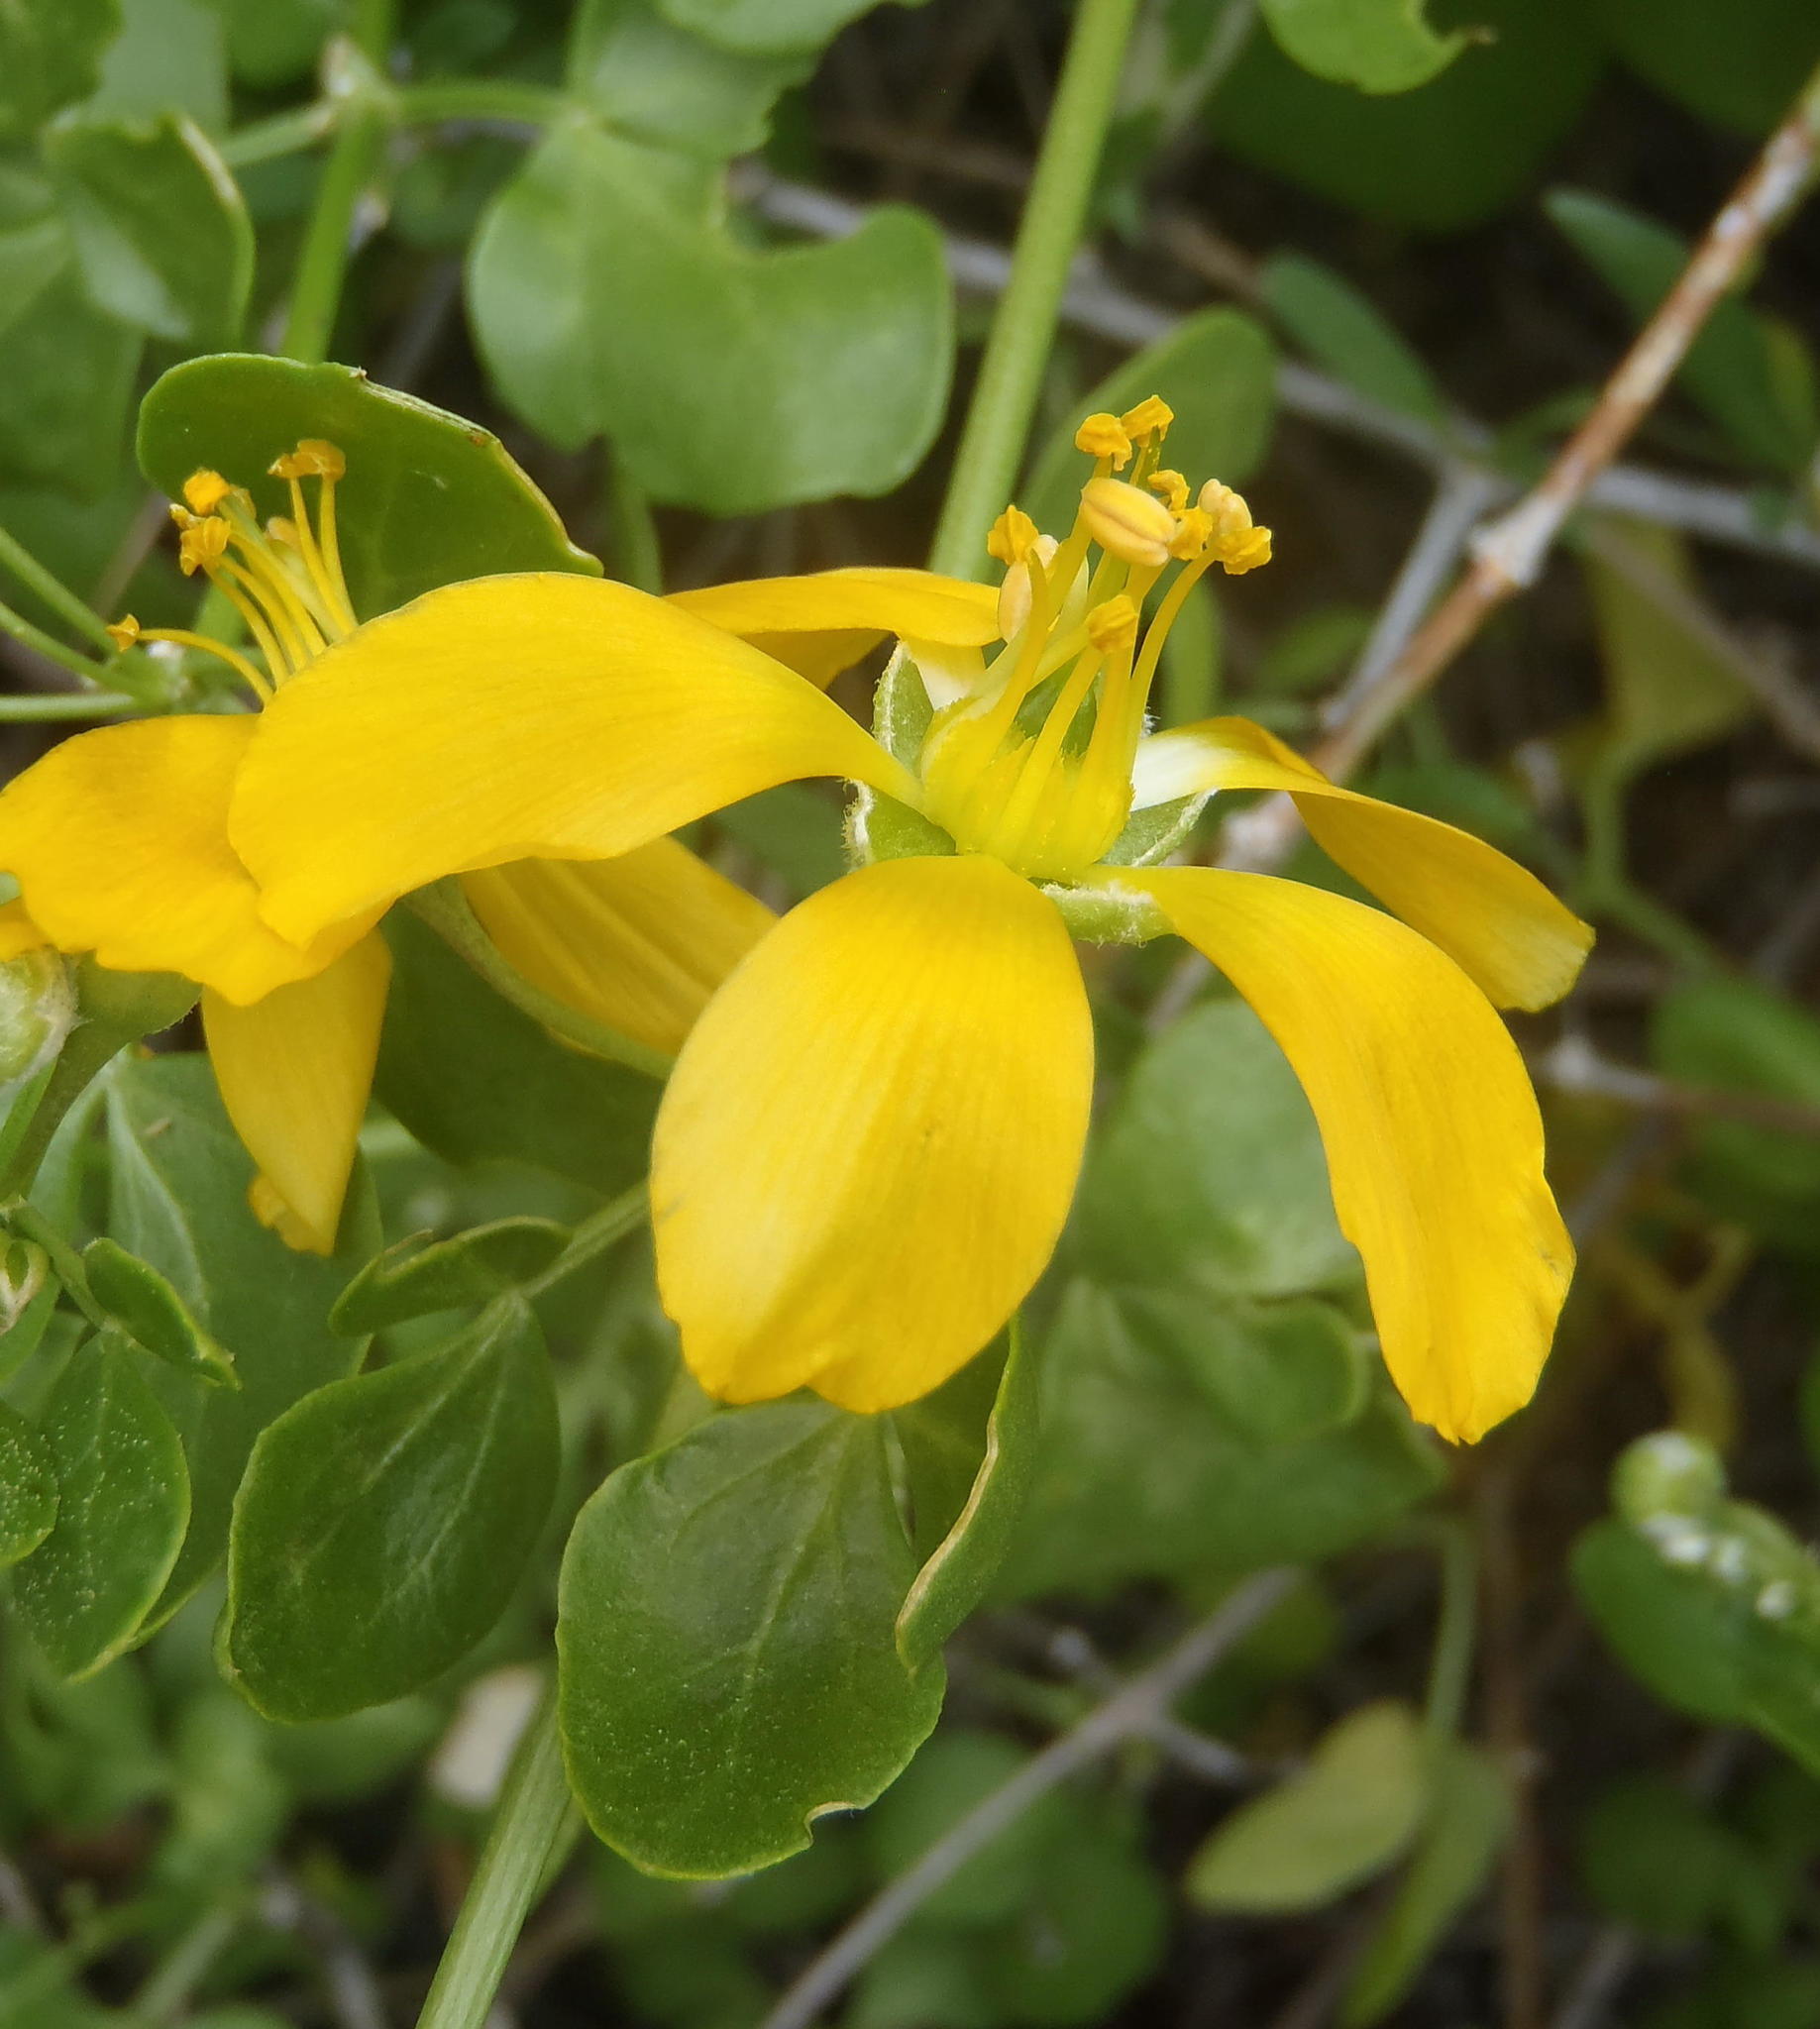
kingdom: Plantae
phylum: Tracheophyta
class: Magnoliopsida
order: Zygophyllales
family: Zygophyllaceae
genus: Roepera
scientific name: Roepera foetida
